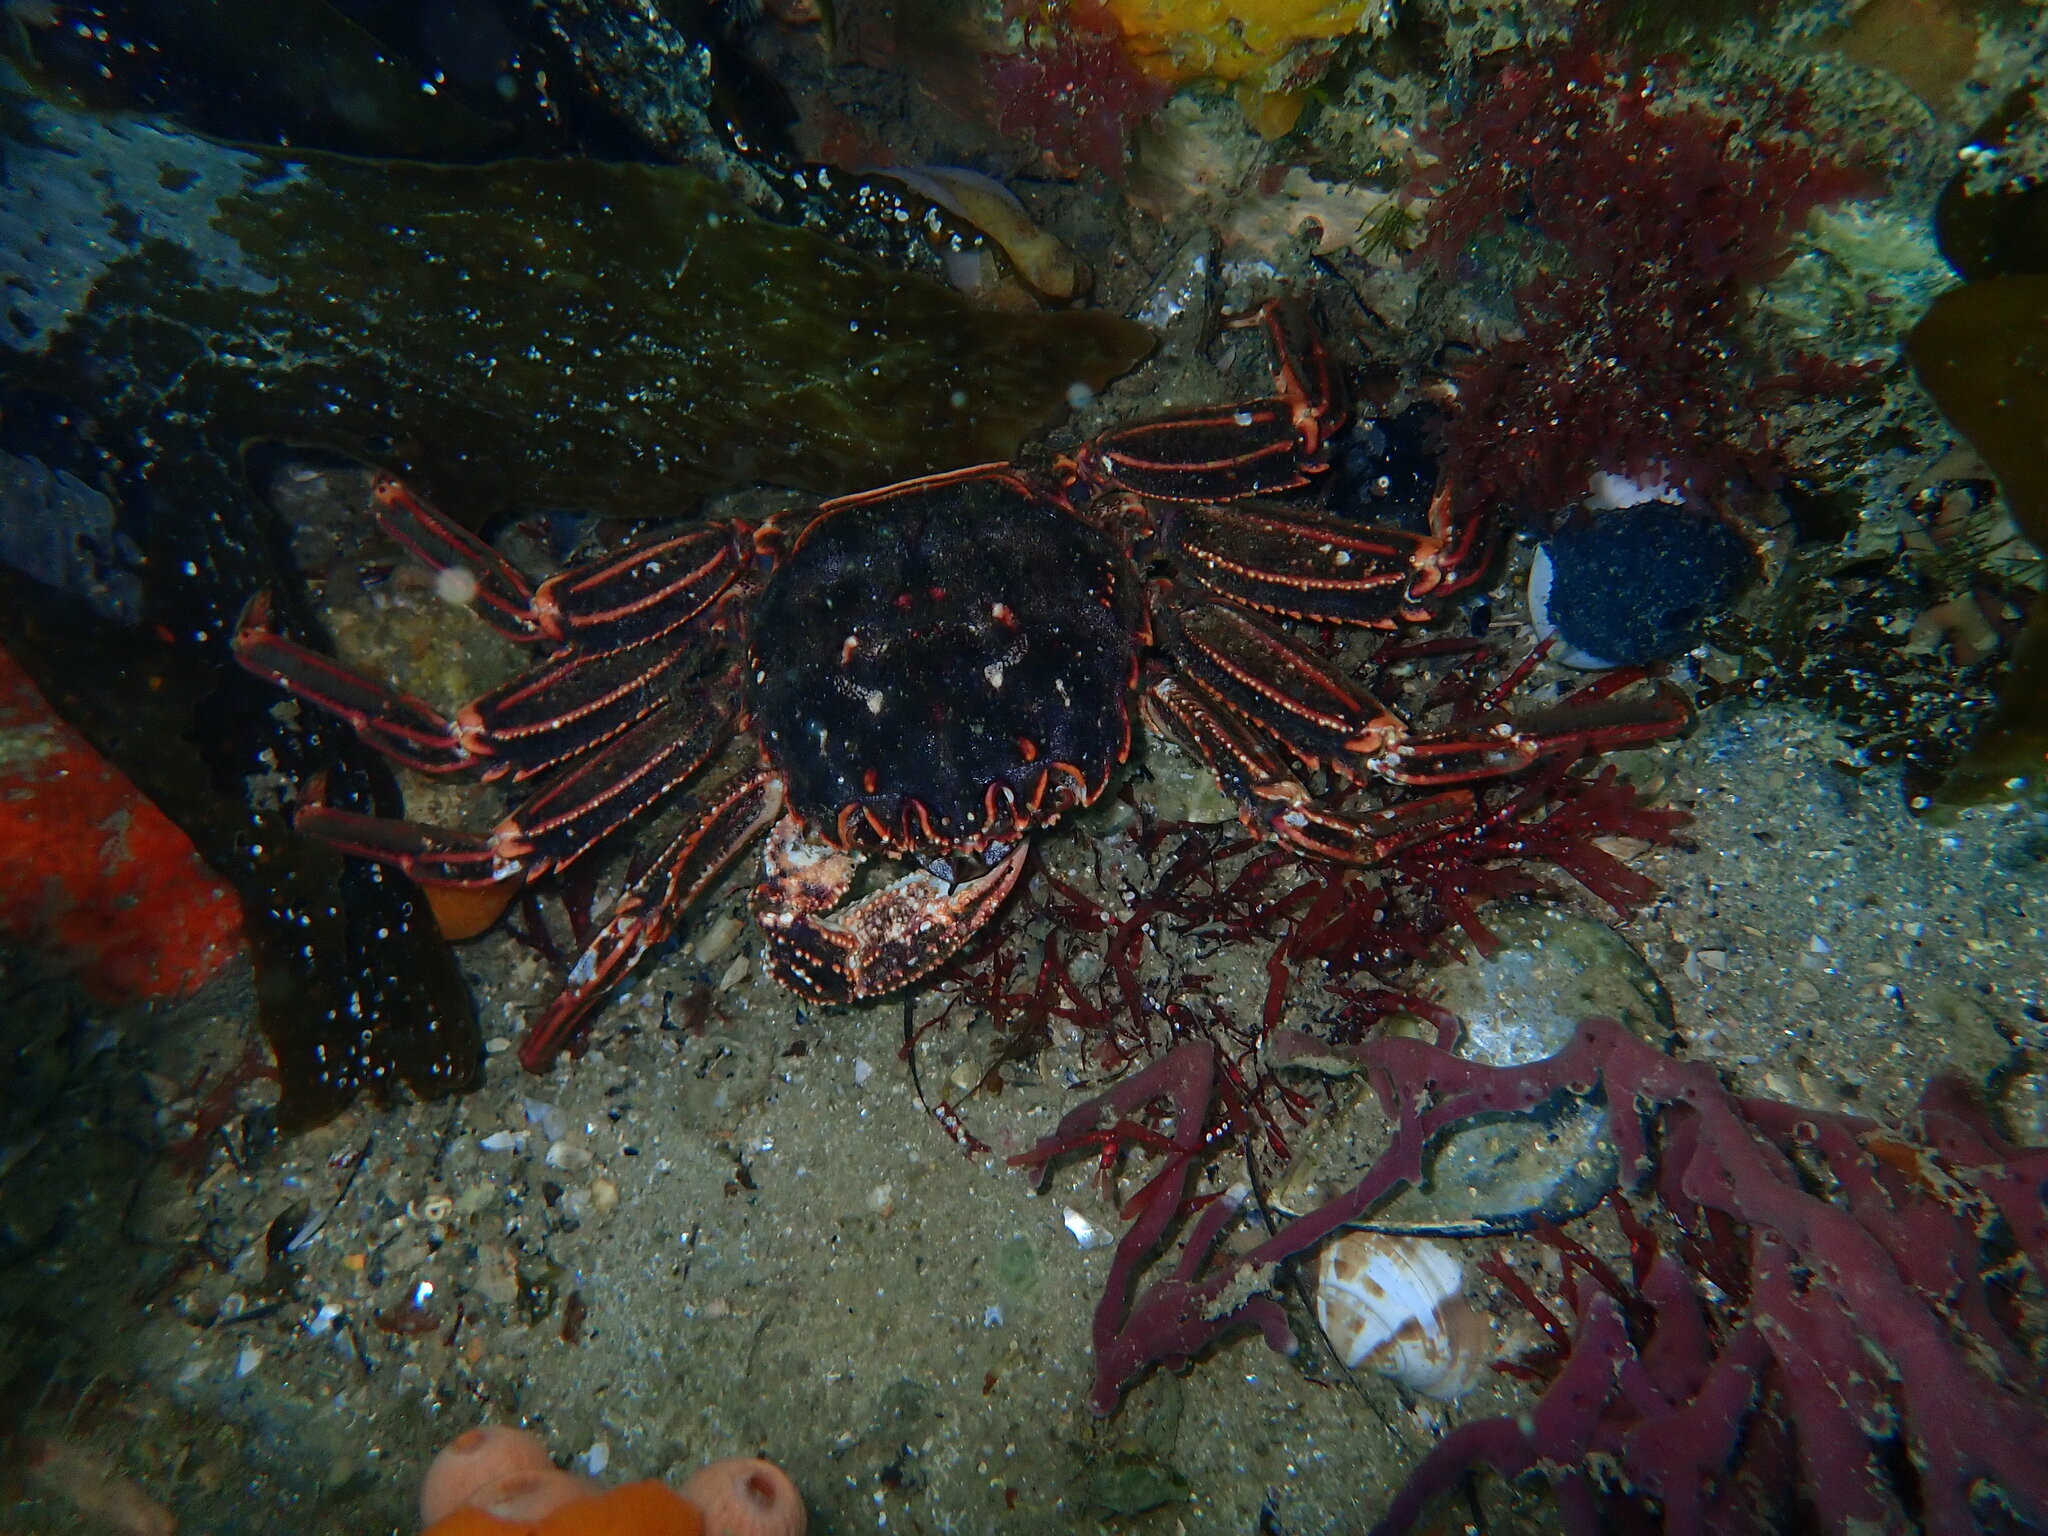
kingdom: Animalia
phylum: Arthropoda
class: Malacostraca
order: Decapoda
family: Plagusiidae
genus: Guinusia
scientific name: Guinusia chabrus
